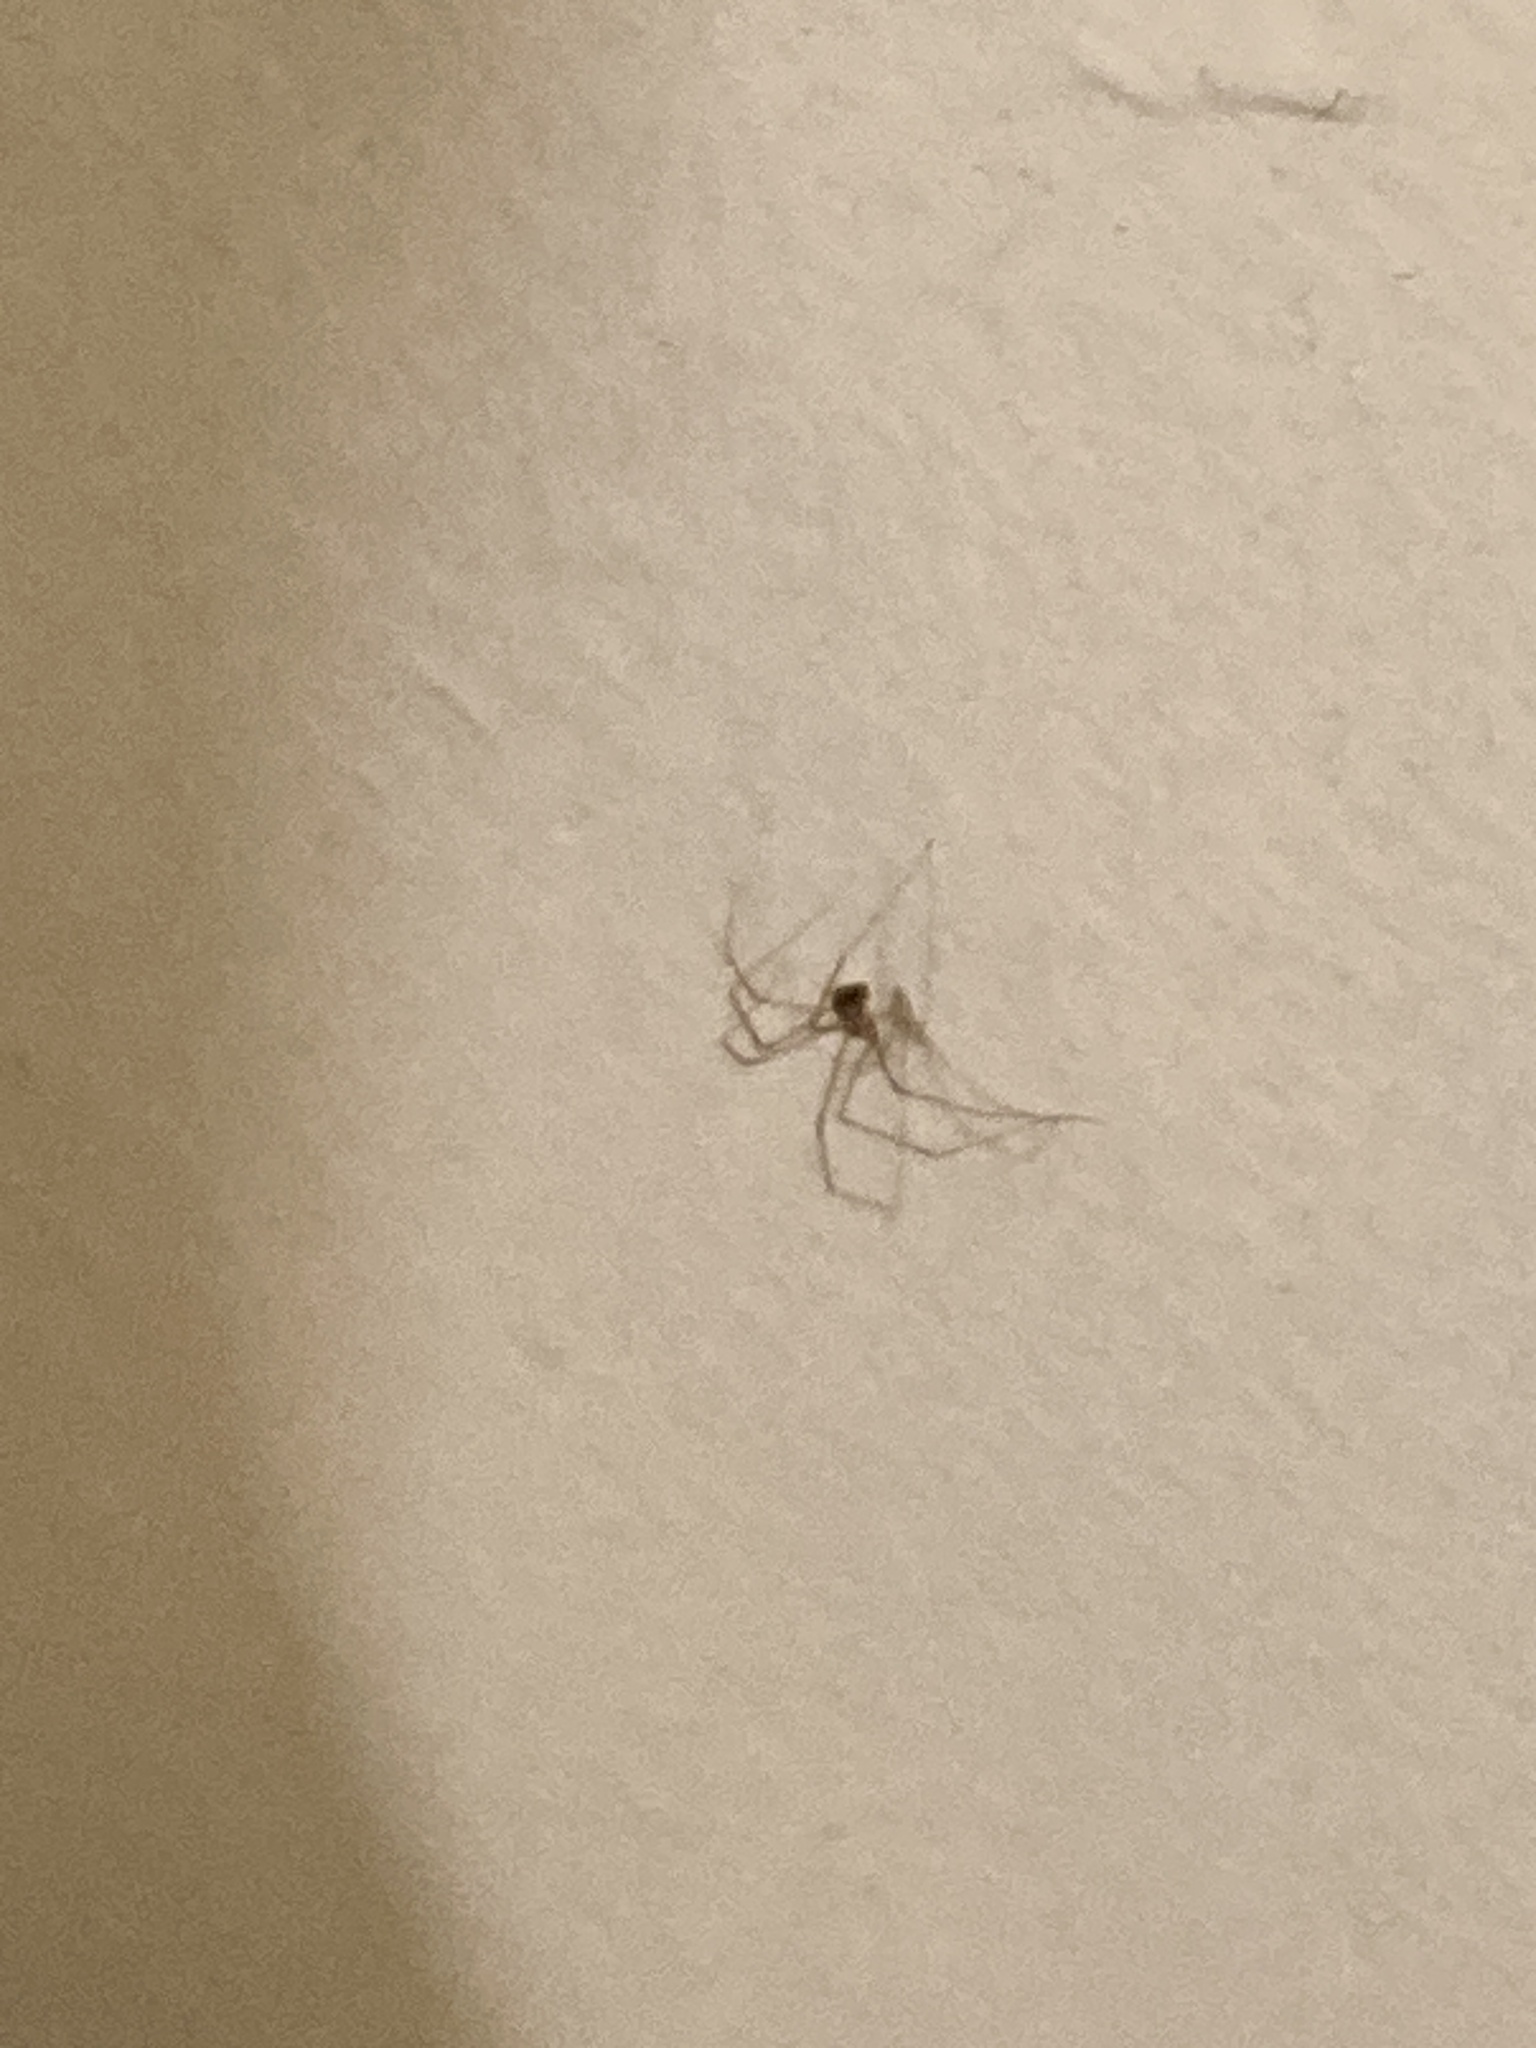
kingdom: Animalia
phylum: Arthropoda
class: Arachnida
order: Araneae
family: Pholcidae
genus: Pholcus
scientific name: Pholcus phalangioides
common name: Longbodied cellar spider
